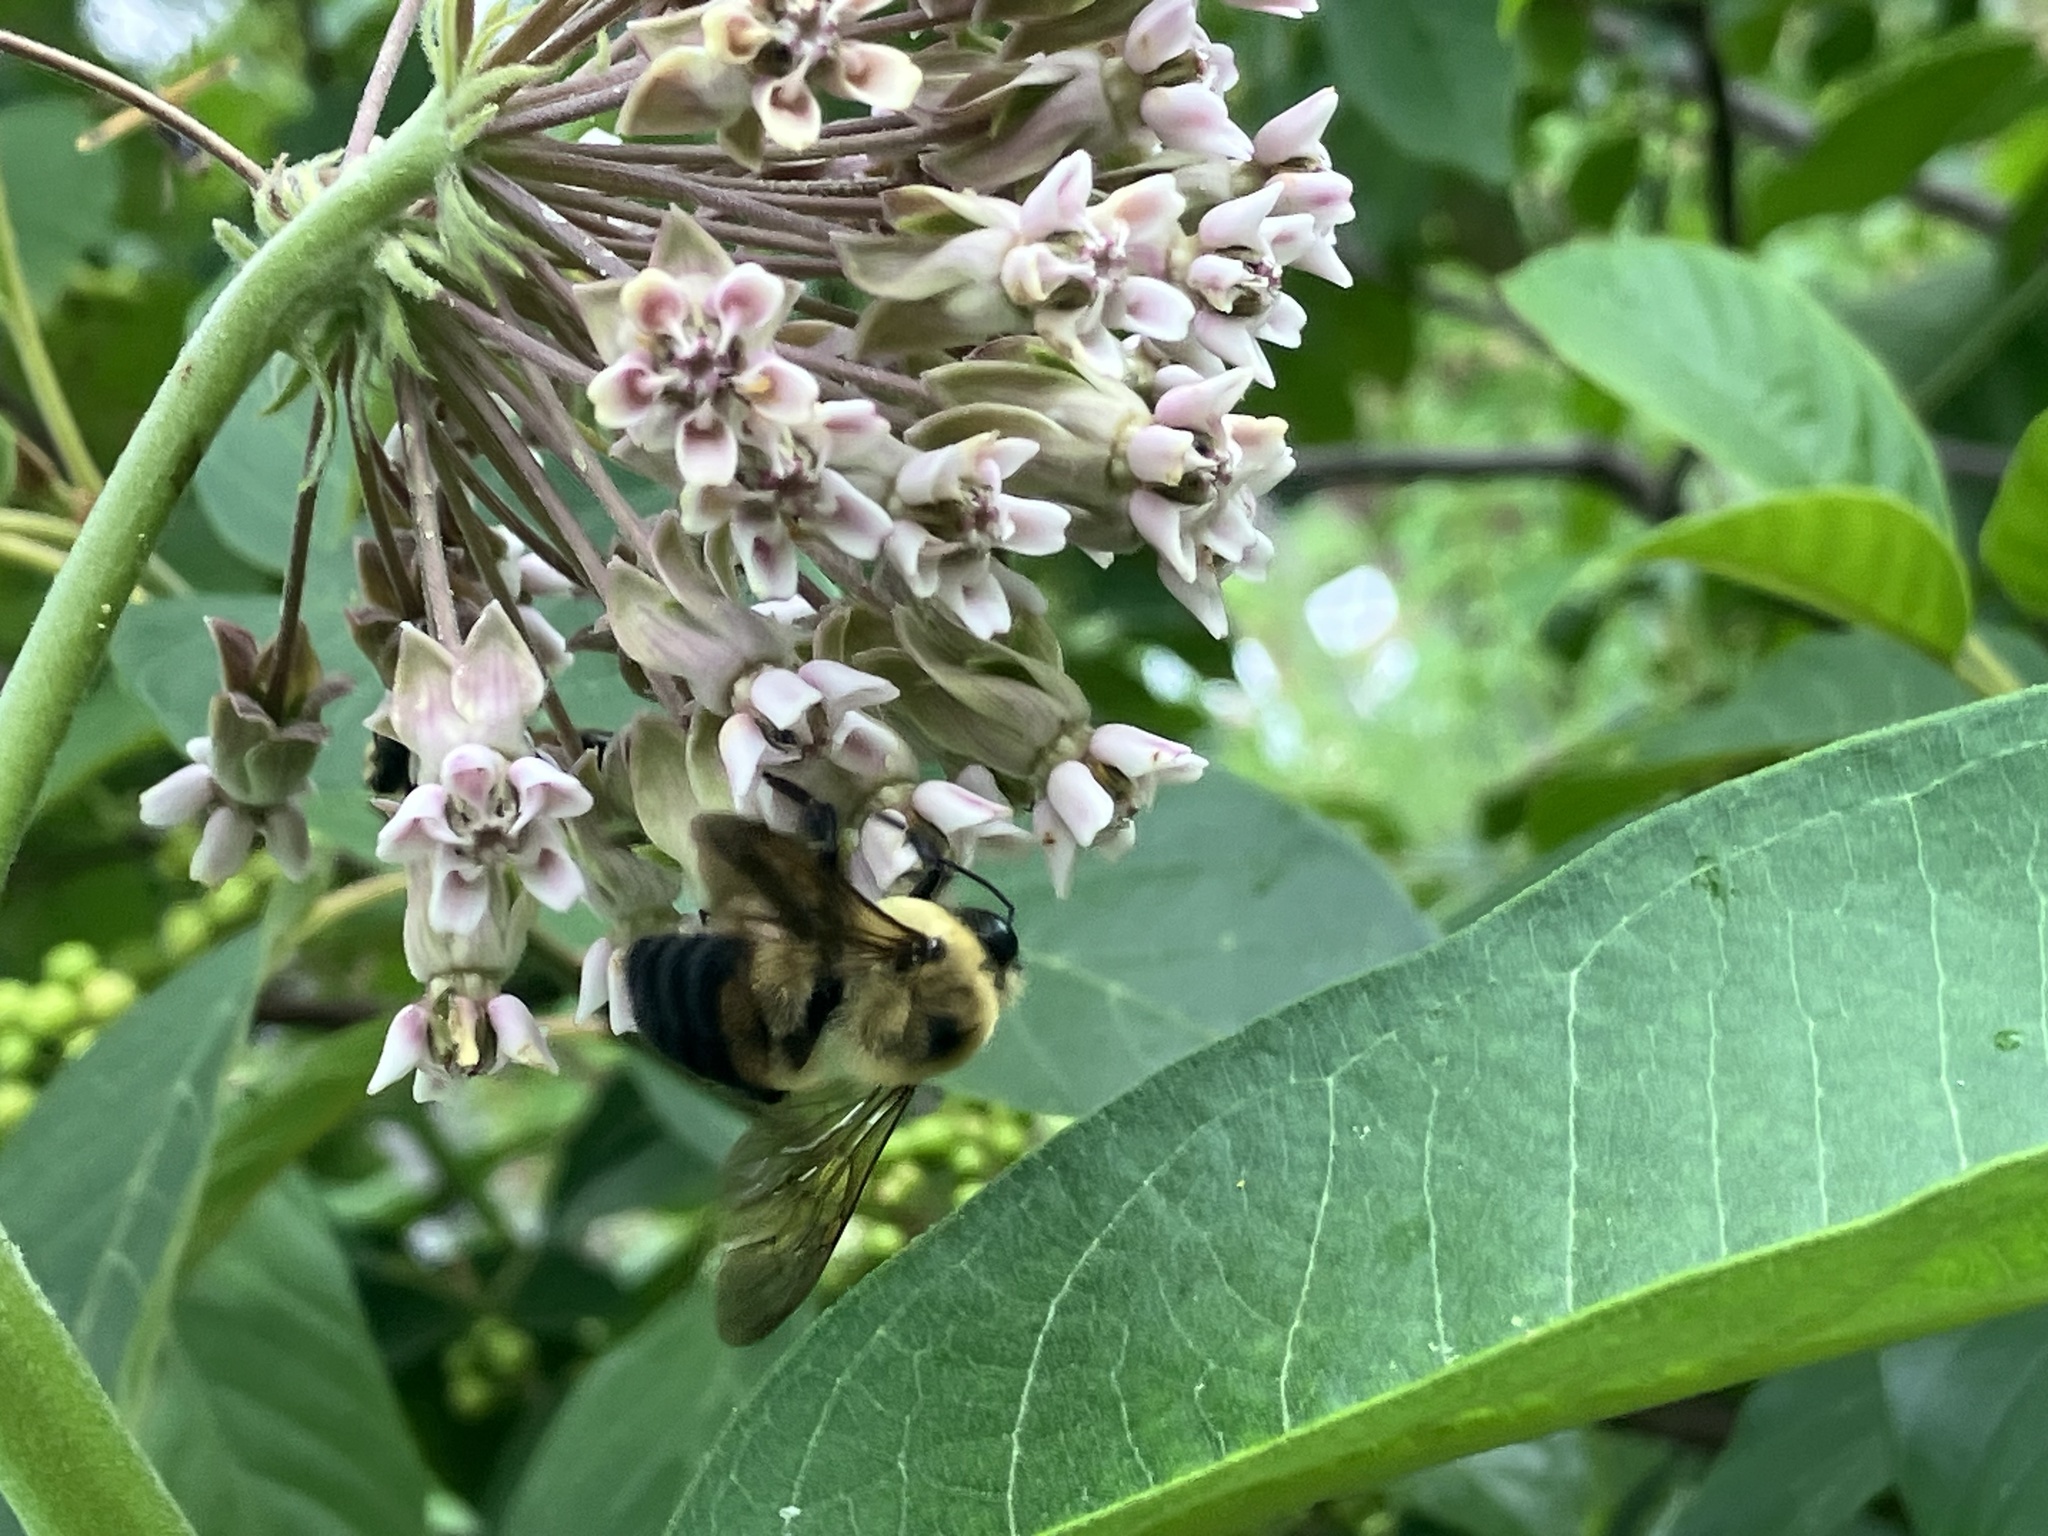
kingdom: Animalia
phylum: Arthropoda
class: Insecta
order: Hymenoptera
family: Apidae
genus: Bombus
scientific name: Bombus griseocollis
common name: Brown-belted bumble bee
